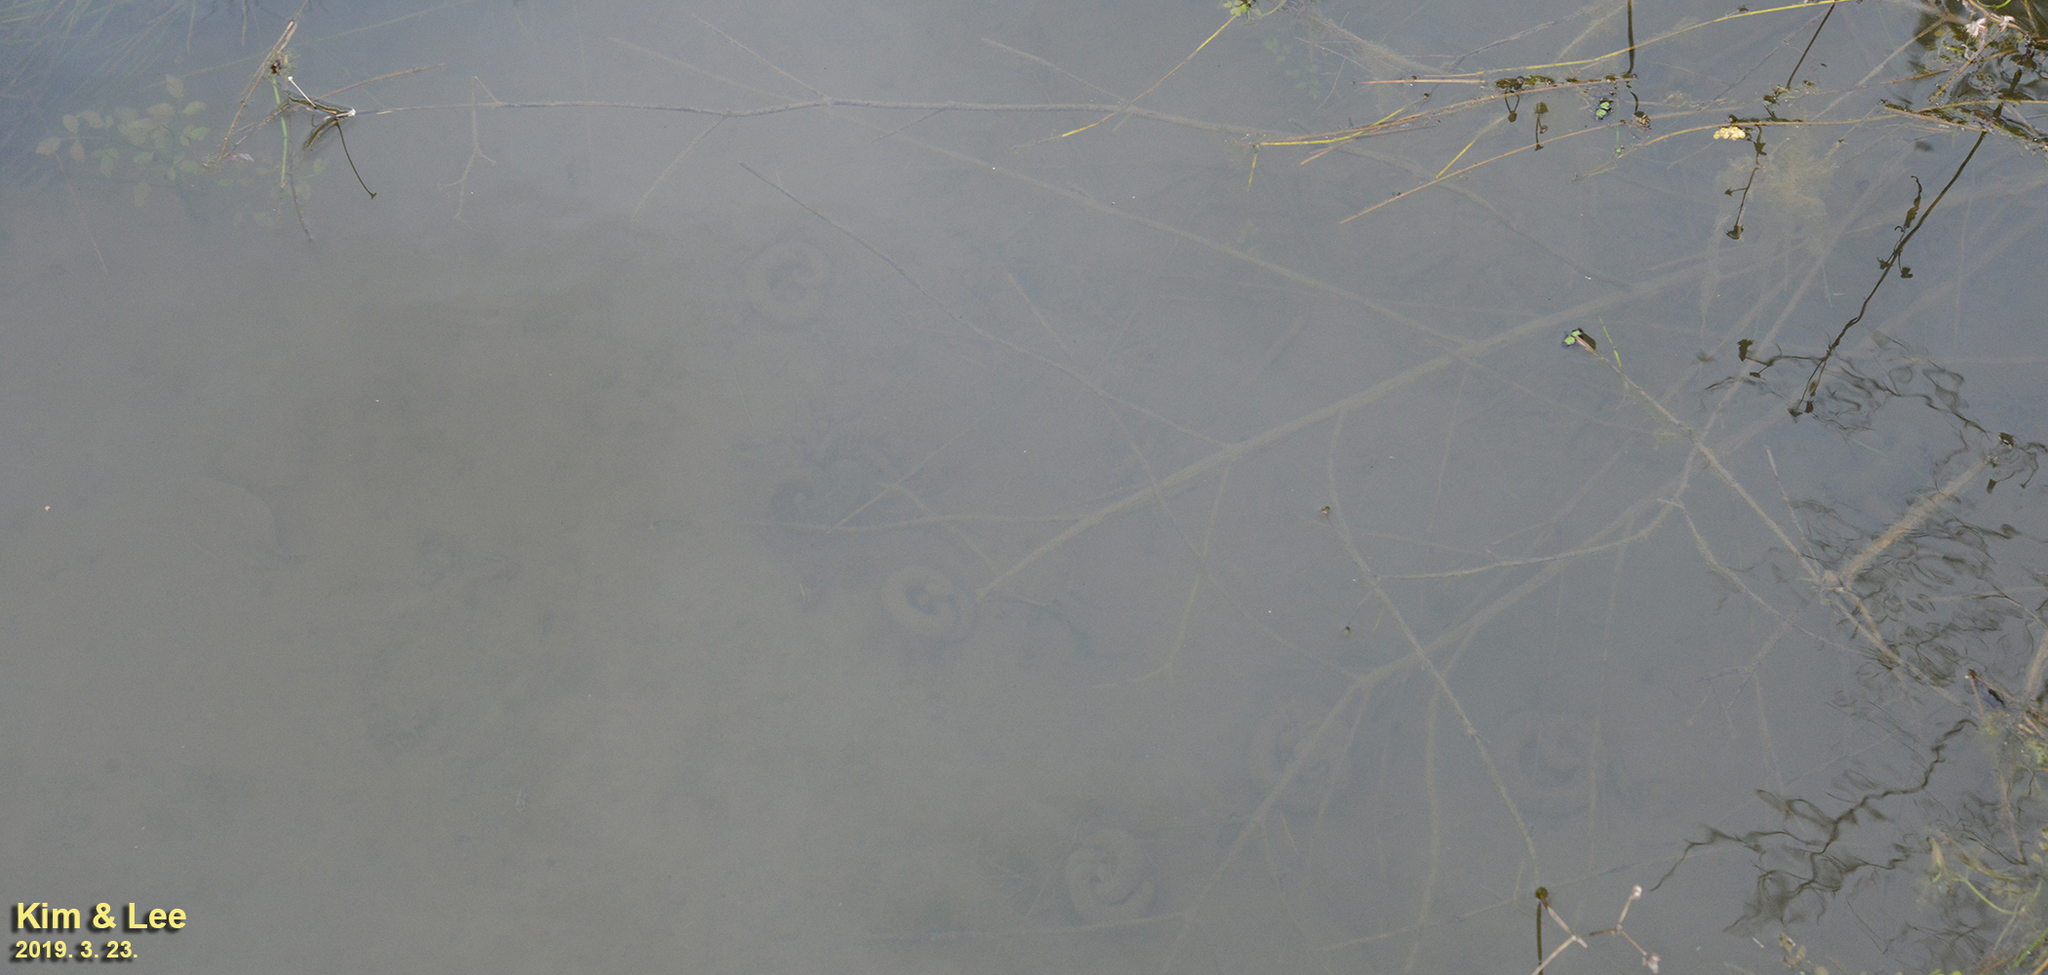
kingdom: Animalia
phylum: Chordata
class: Amphibia
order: Caudata
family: Hynobiidae
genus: Hynobius
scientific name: Hynobius leechii
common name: Gensan salamander
